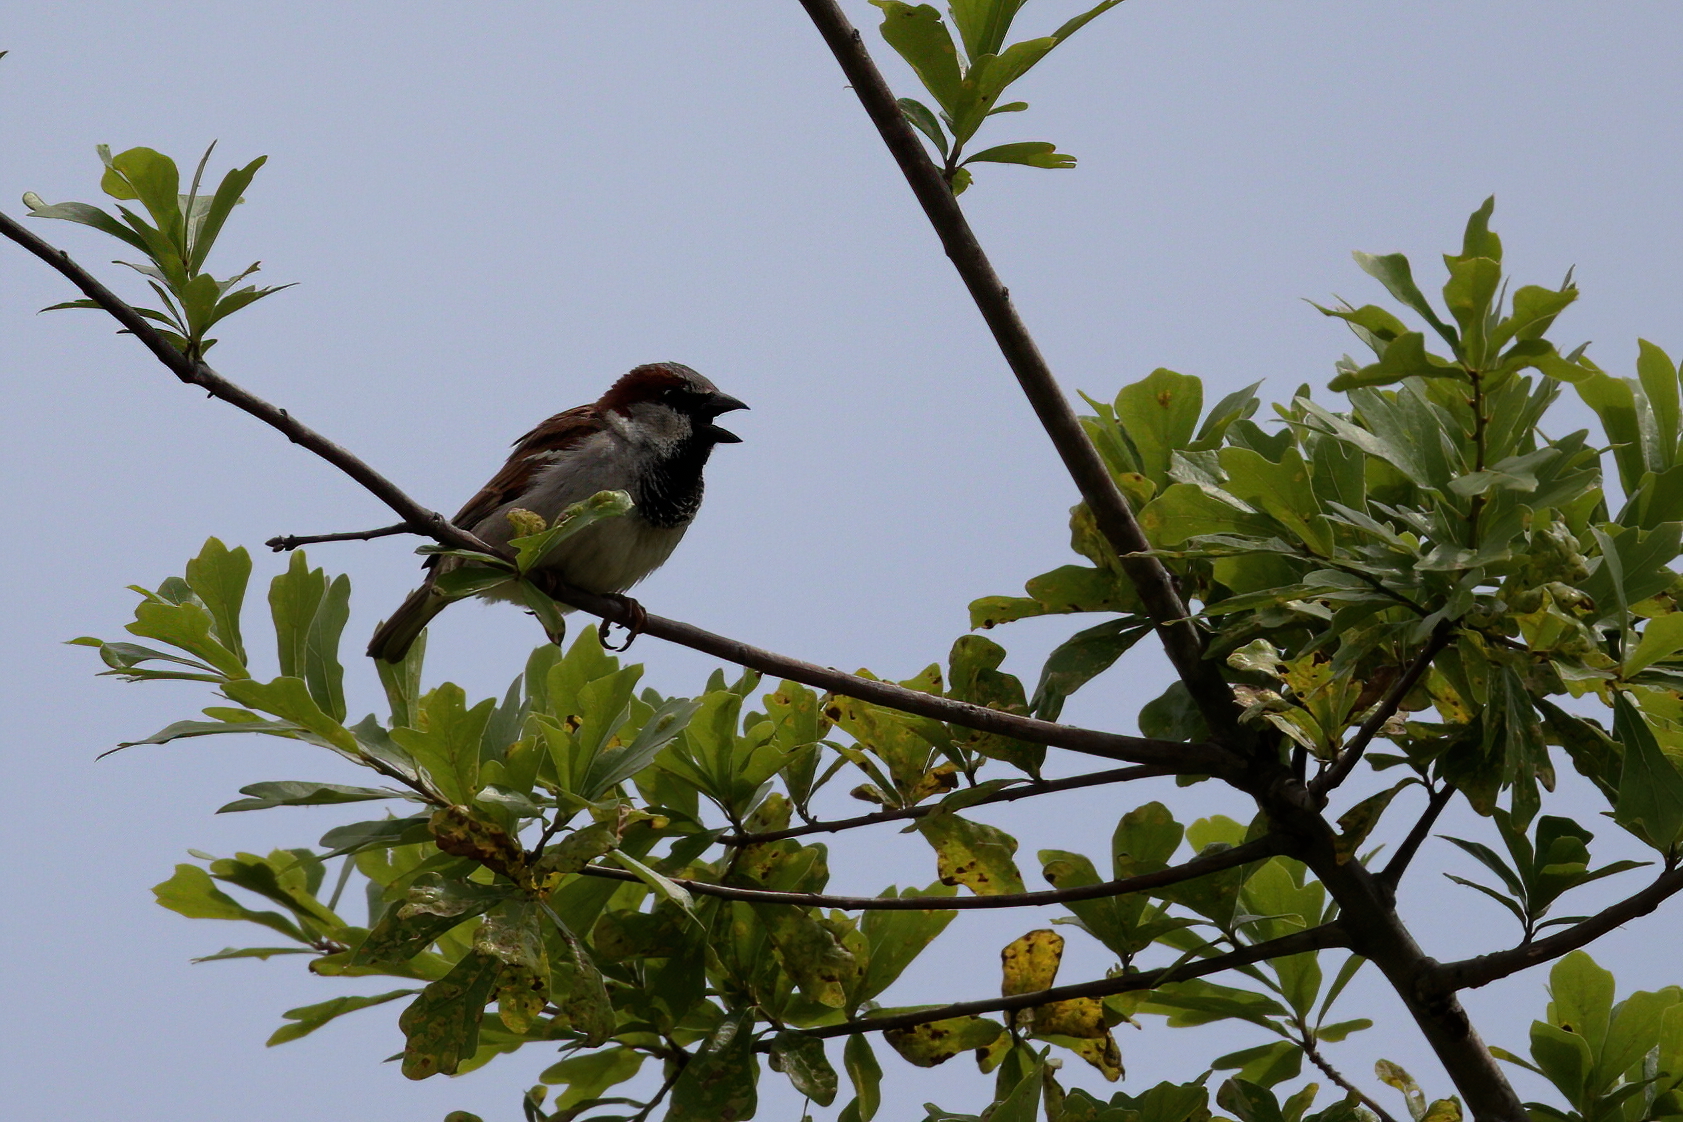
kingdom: Animalia
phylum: Chordata
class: Aves
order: Passeriformes
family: Passeridae
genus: Passer
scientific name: Passer domesticus
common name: House sparrow
